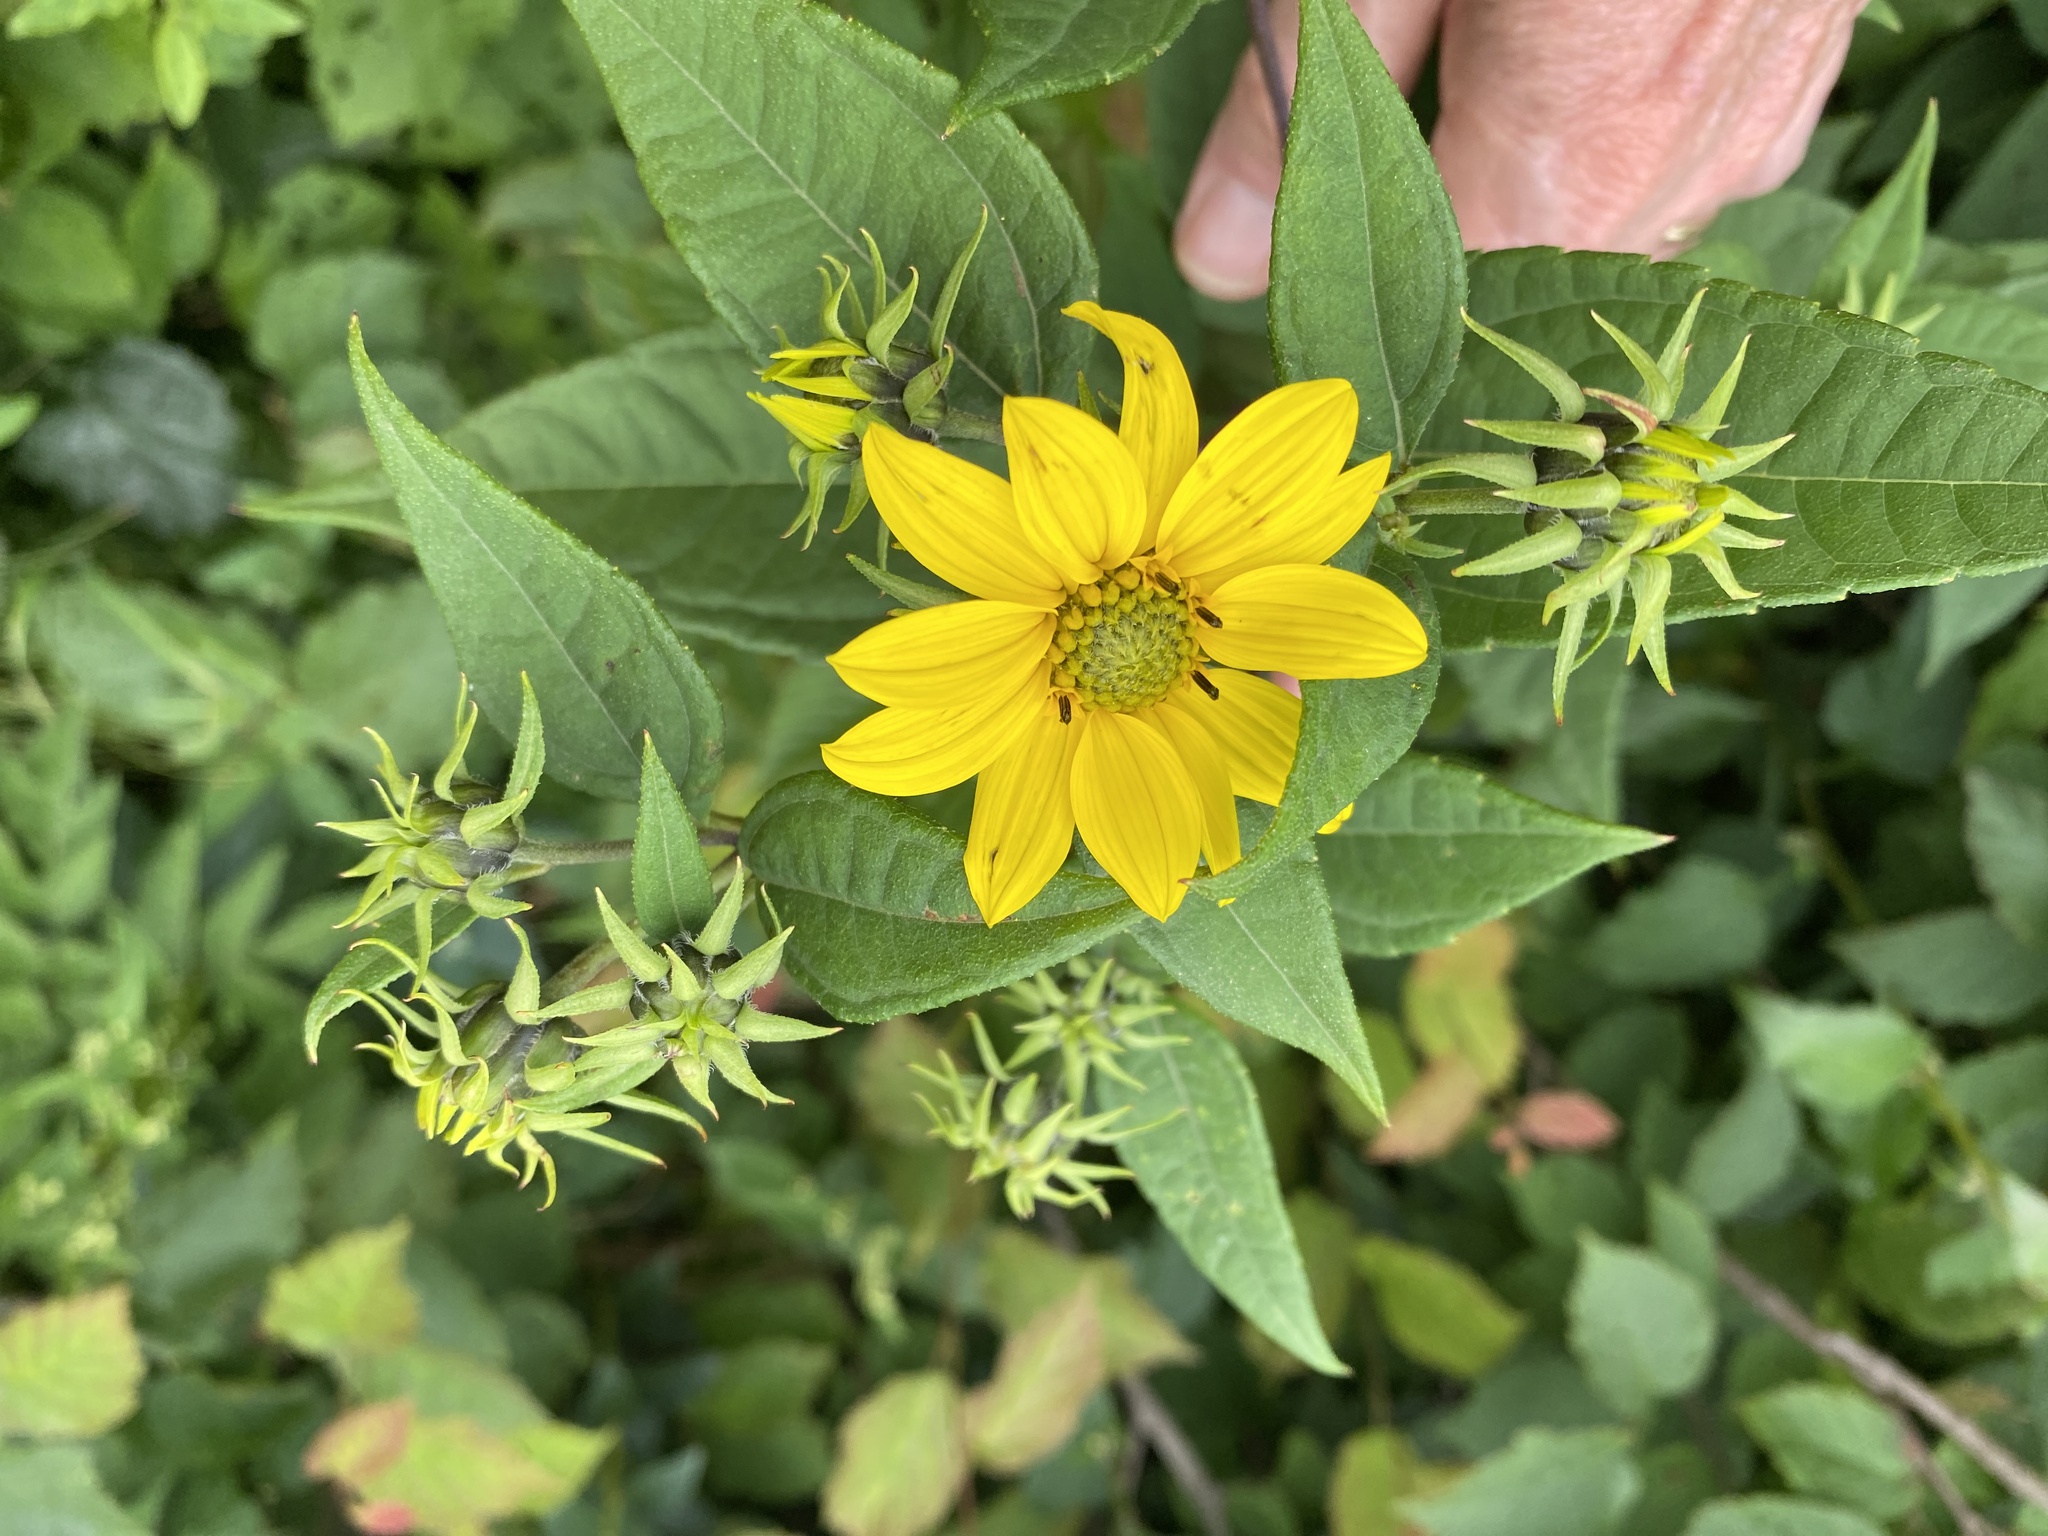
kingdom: Plantae
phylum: Tracheophyta
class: Magnoliopsida
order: Asterales
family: Asteraceae
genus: Helianthus
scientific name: Helianthus decapetalus
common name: Thin-leaved sunflower
